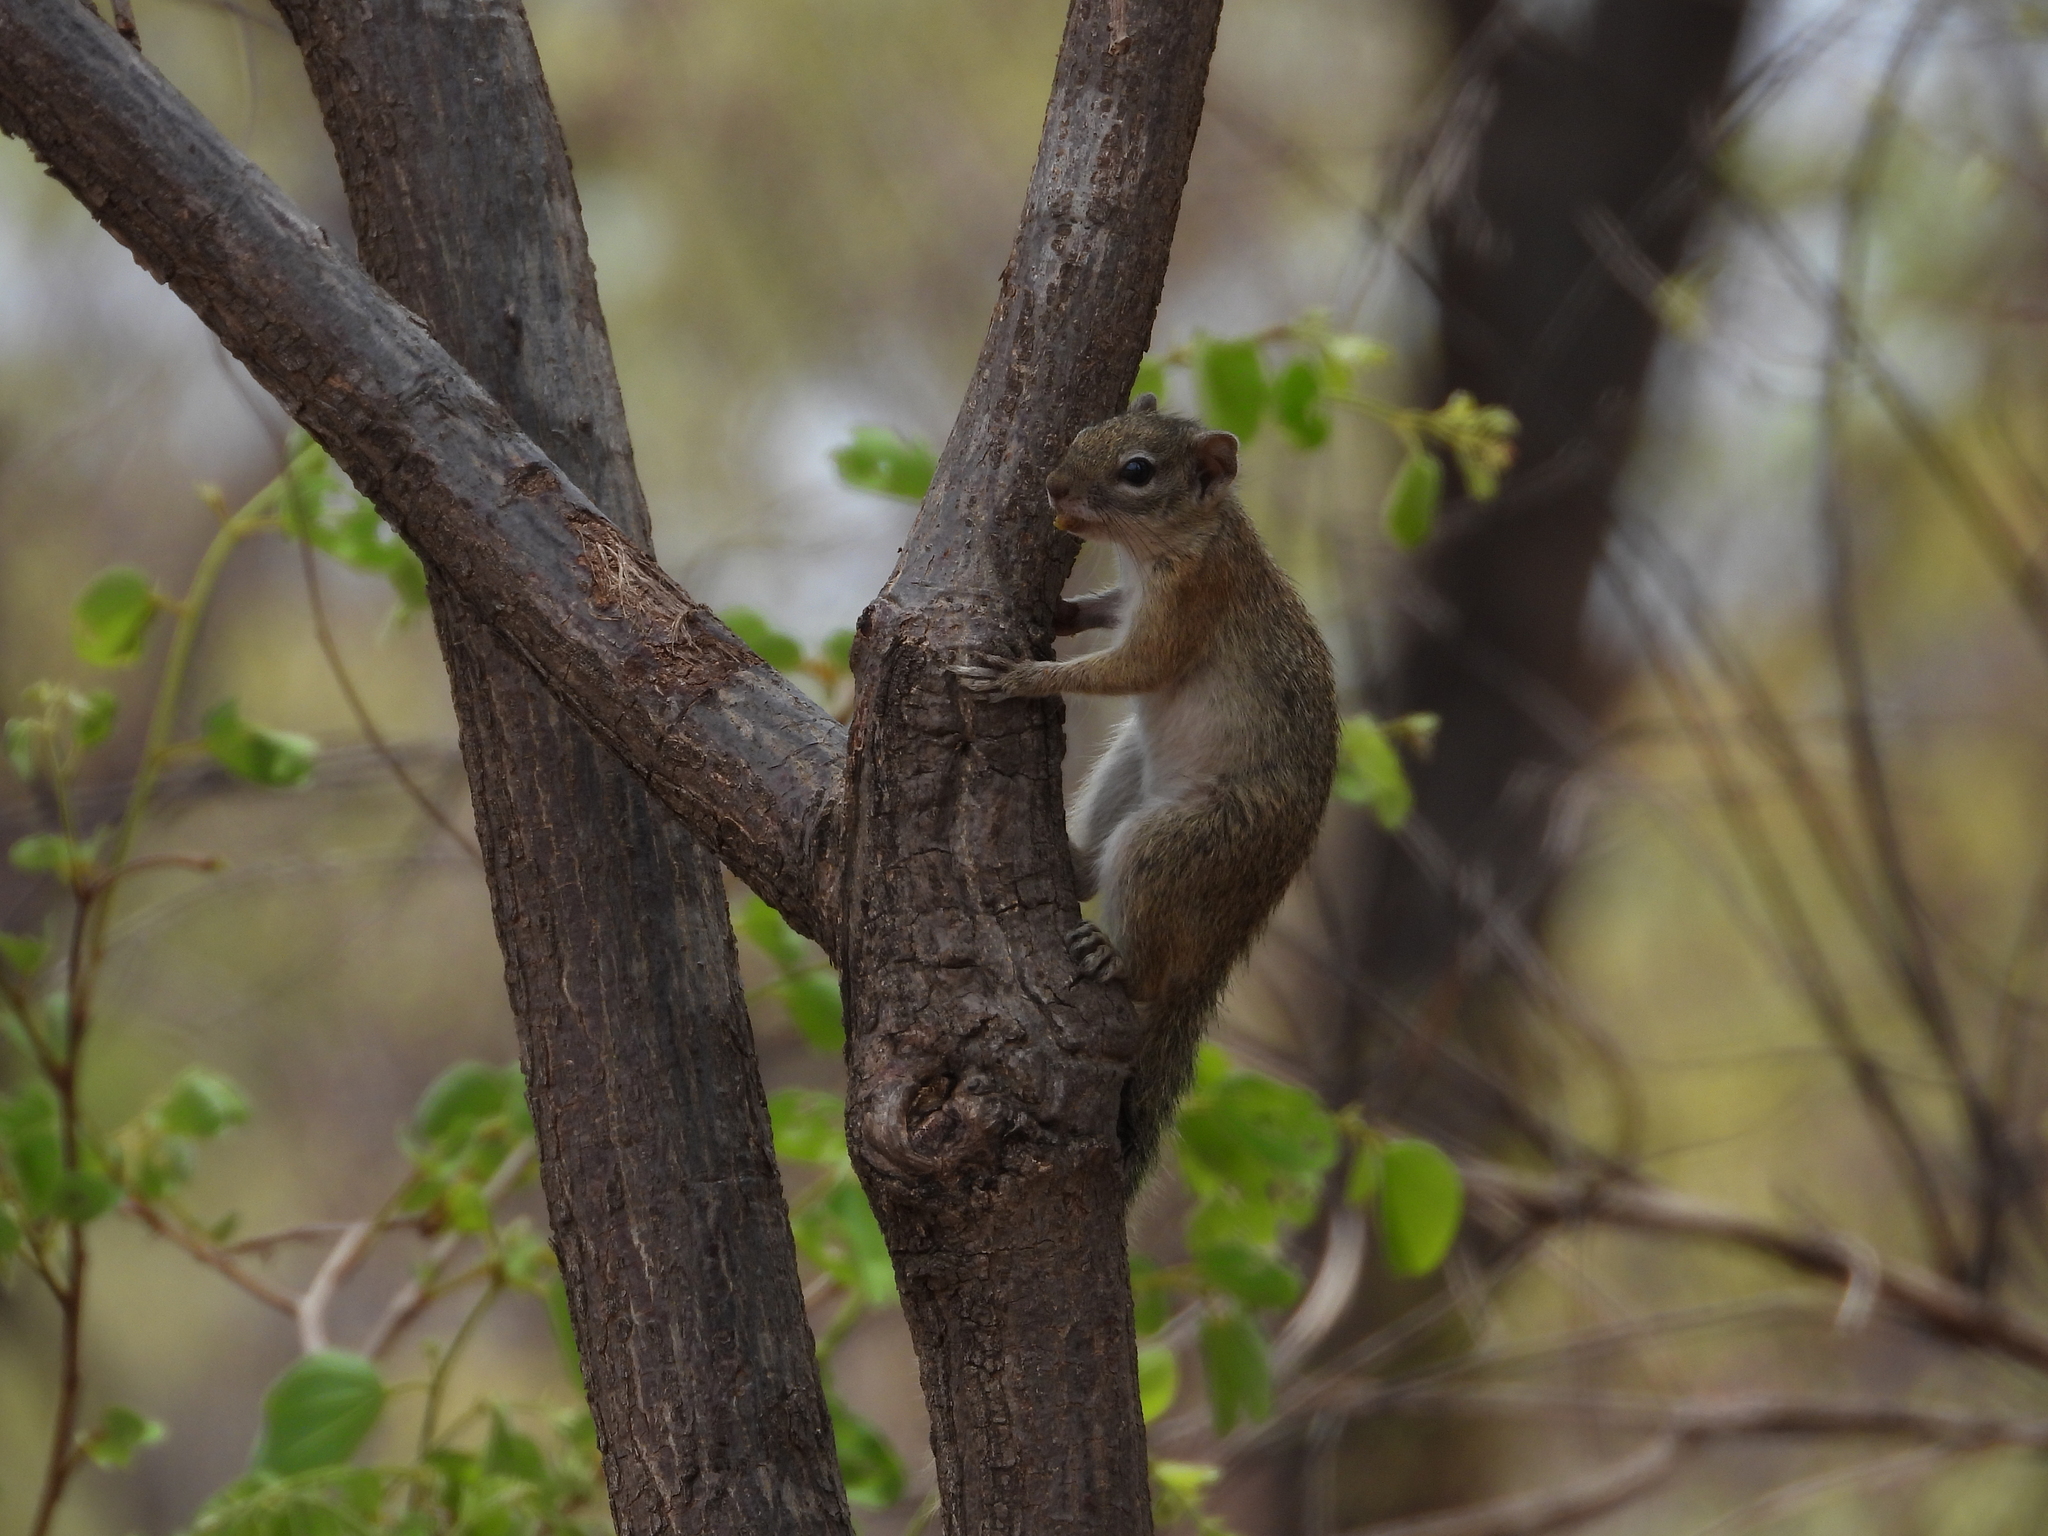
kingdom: Animalia
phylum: Chordata
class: Mammalia
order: Rodentia
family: Sciuridae
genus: Paraxerus
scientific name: Paraxerus cepapi
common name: Smith's bush squirrel
